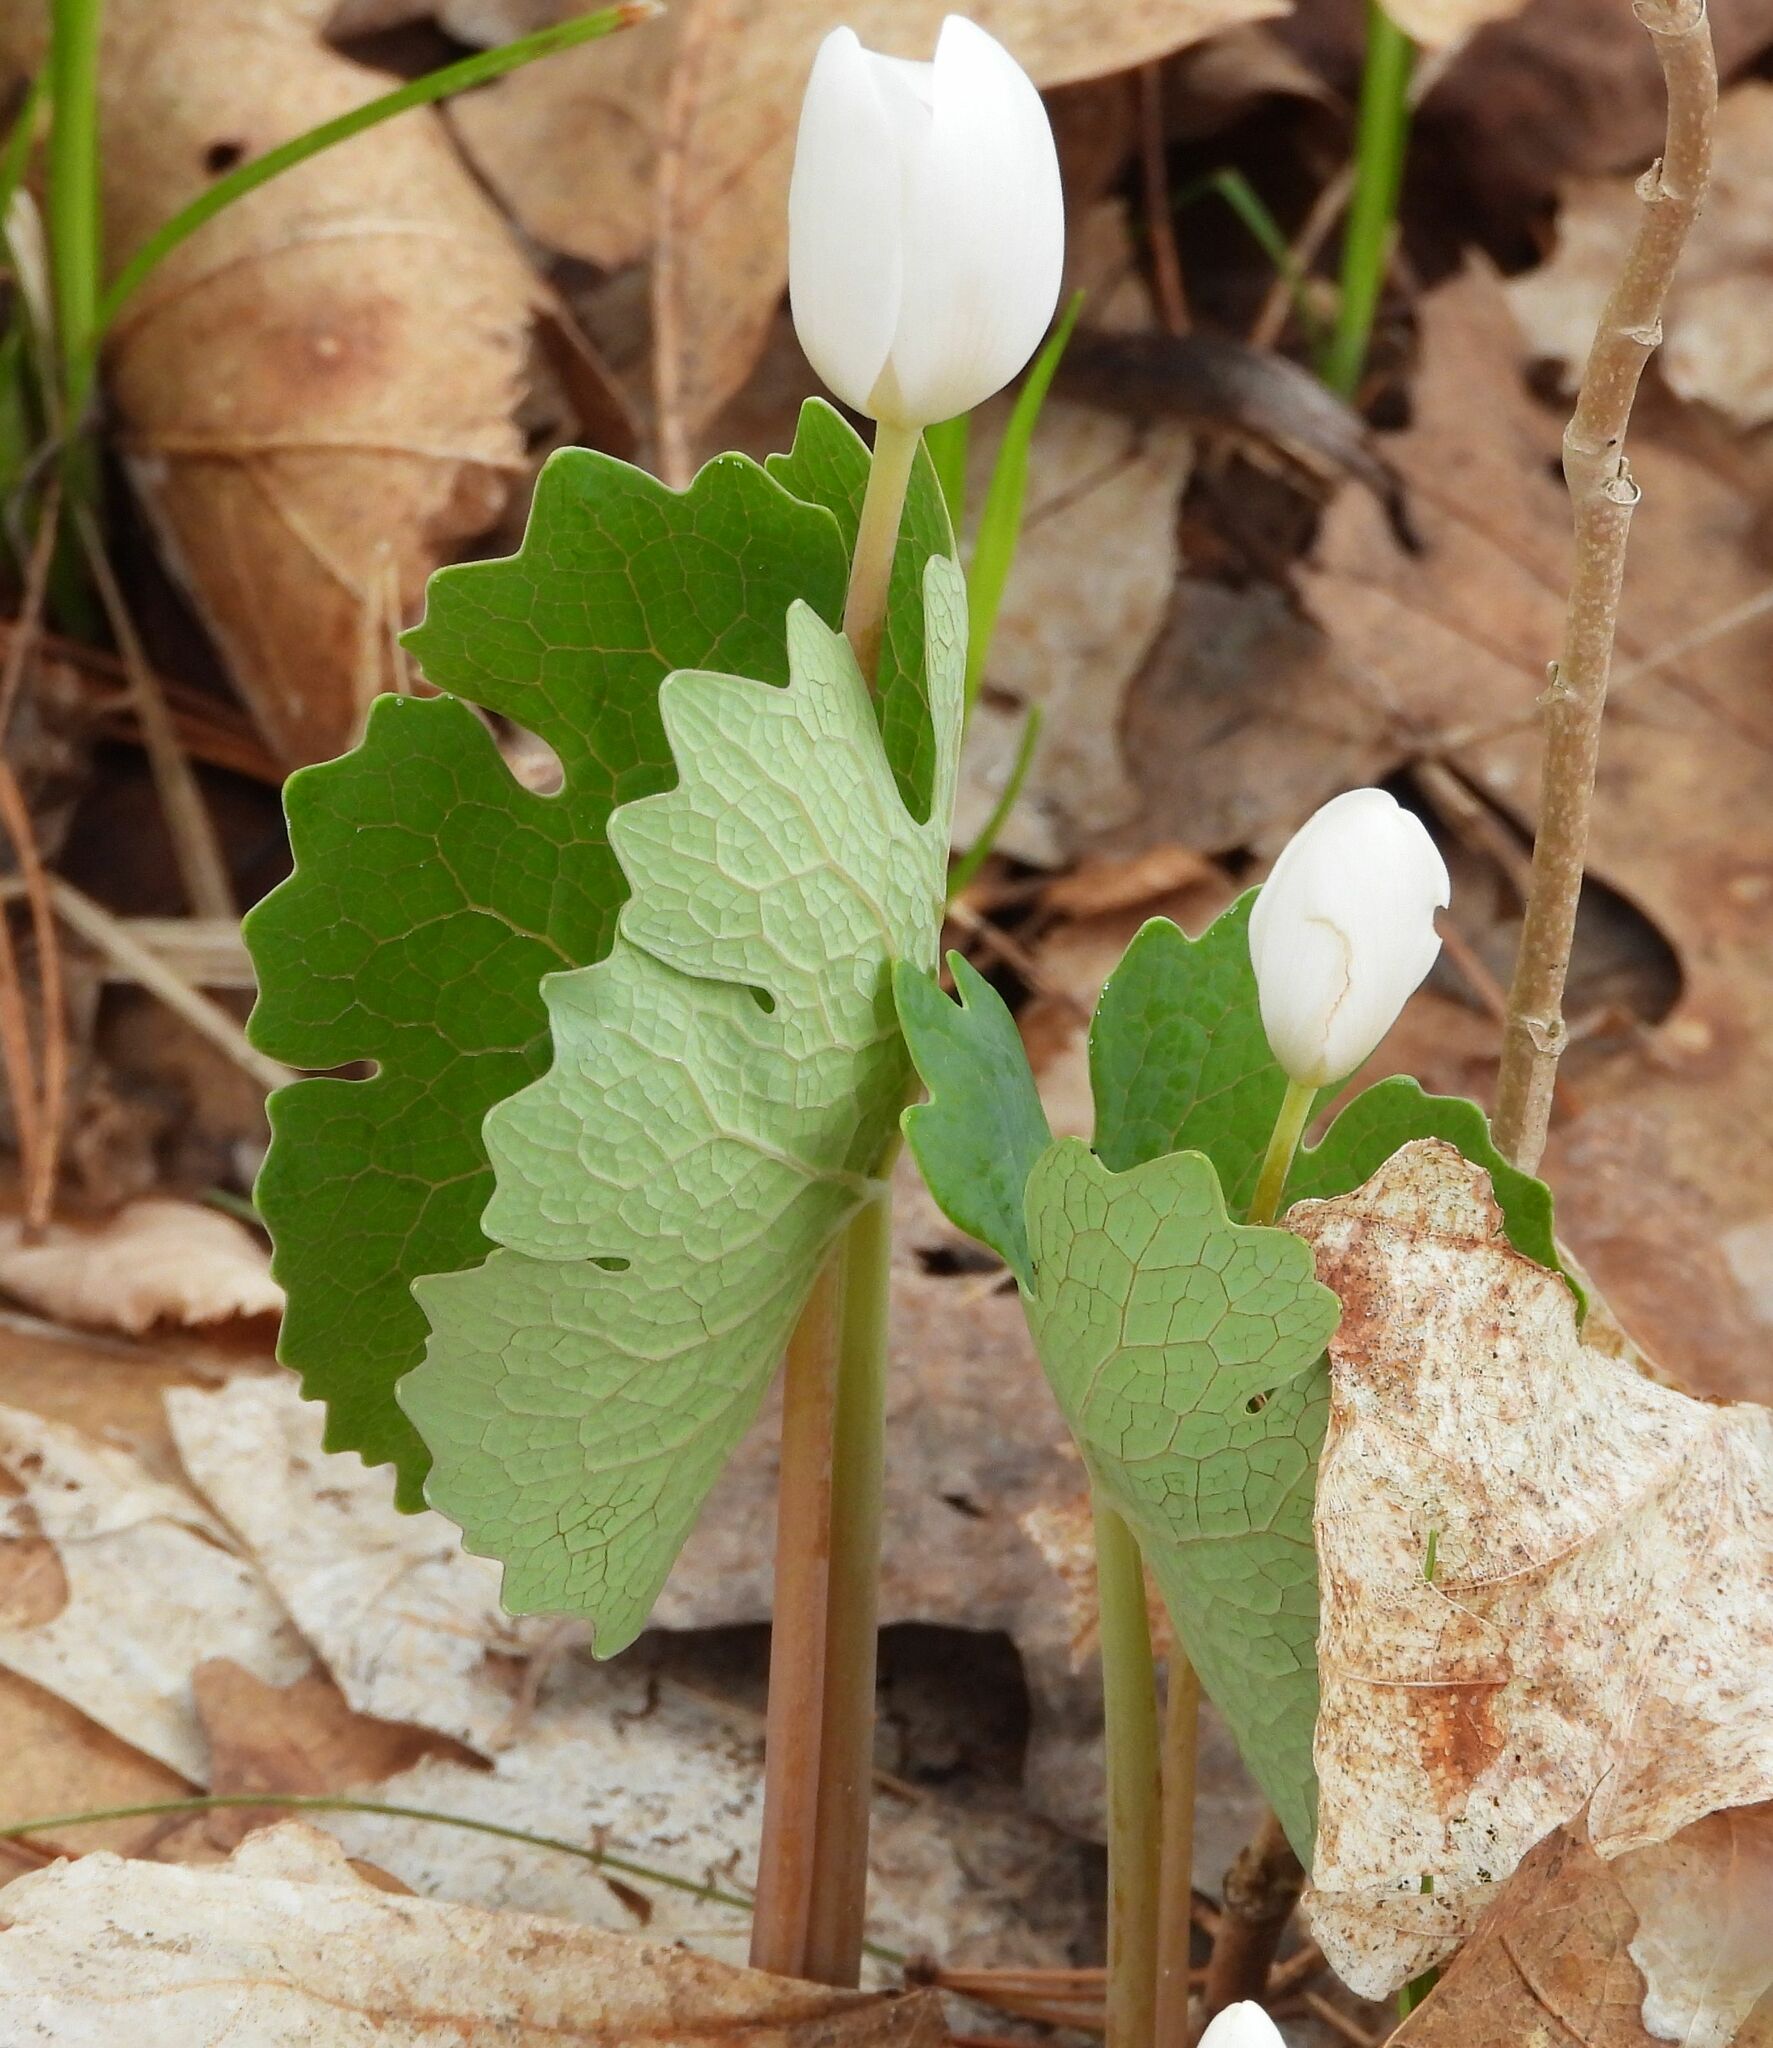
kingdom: Plantae
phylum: Tracheophyta
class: Magnoliopsida
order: Ranunculales
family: Papaveraceae
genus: Sanguinaria
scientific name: Sanguinaria canadensis
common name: Bloodroot
